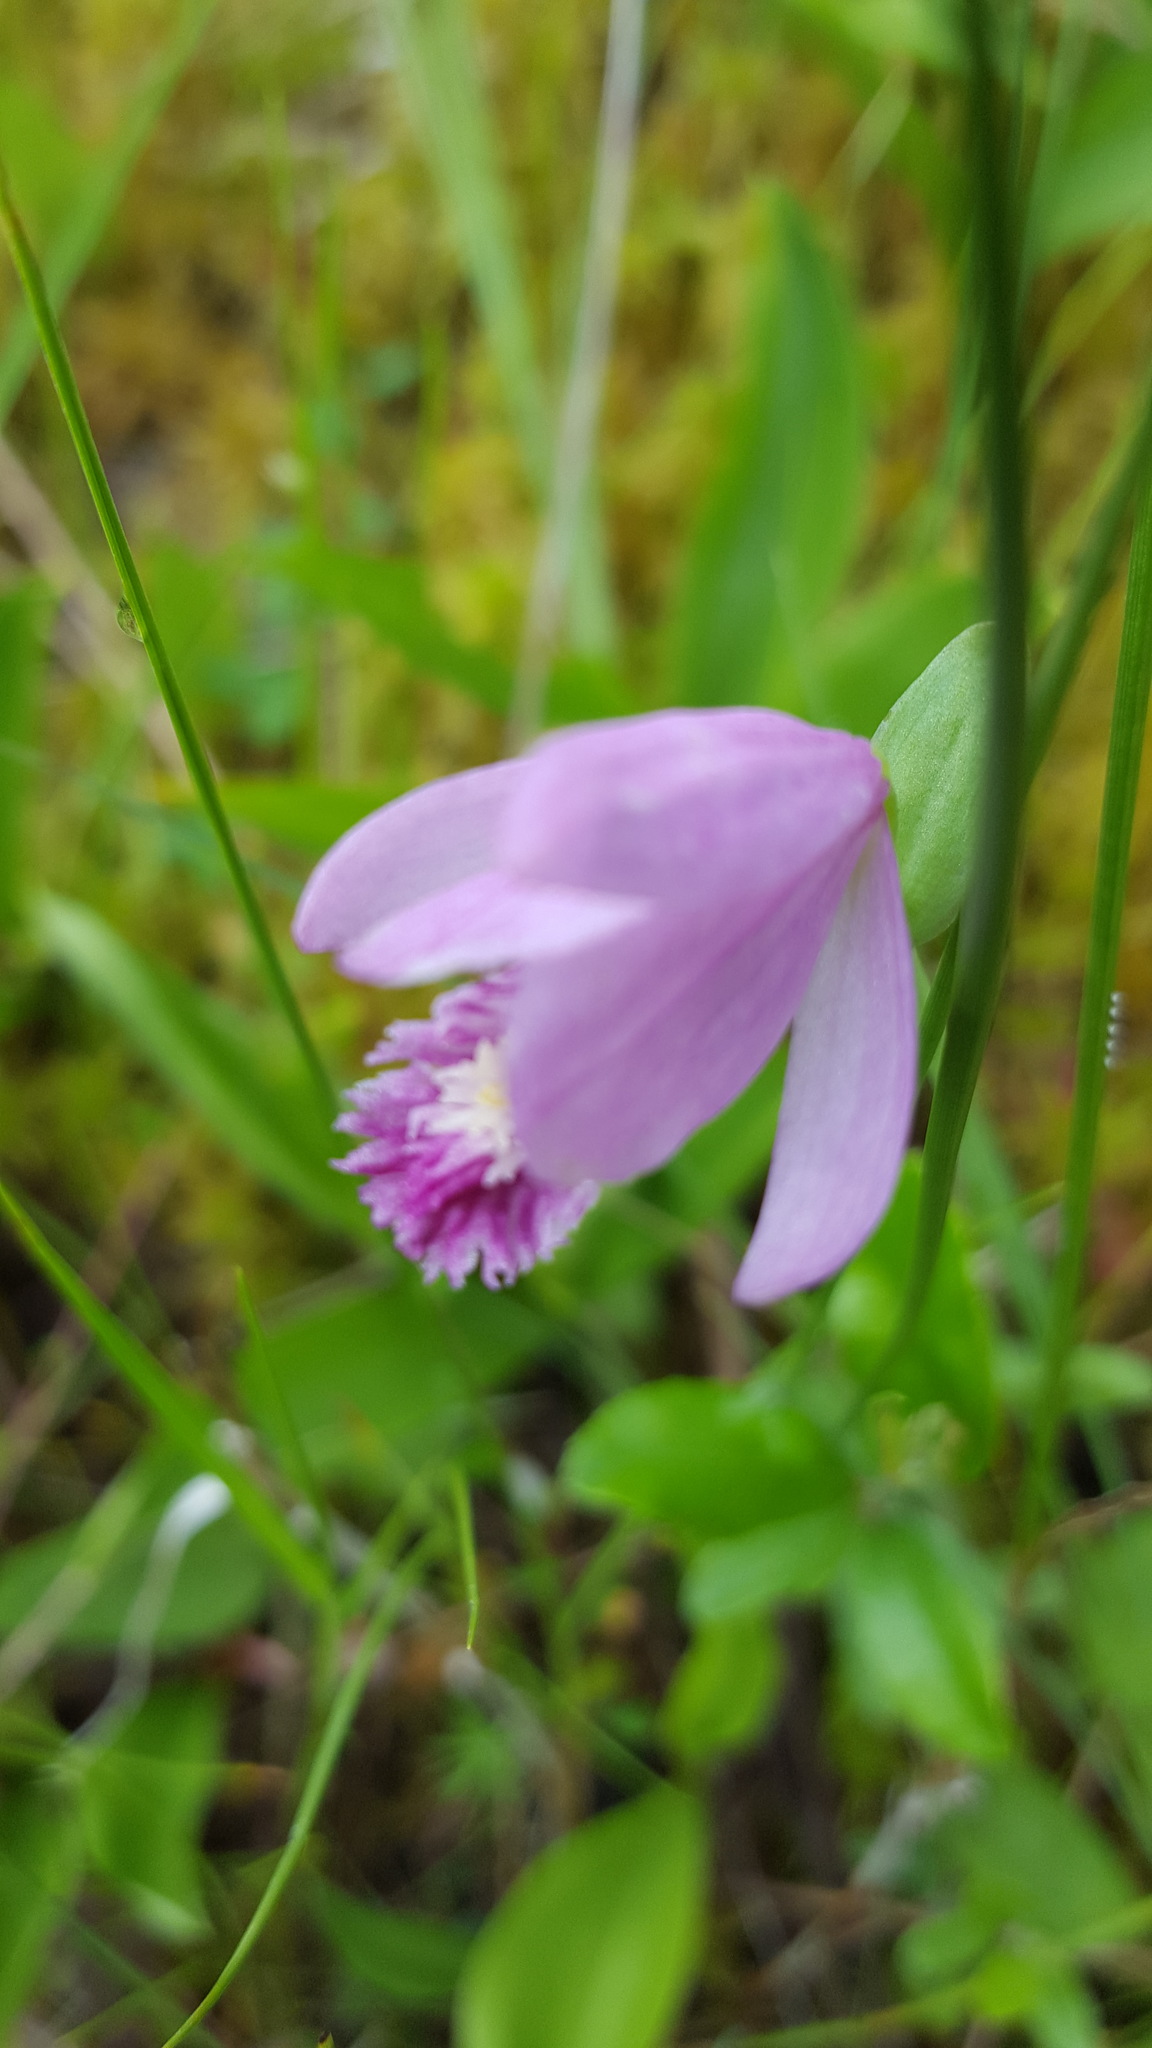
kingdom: Plantae
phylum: Tracheophyta
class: Liliopsida
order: Asparagales
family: Orchidaceae
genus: Pogonia
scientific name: Pogonia ophioglossoides
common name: Rose pogonia
